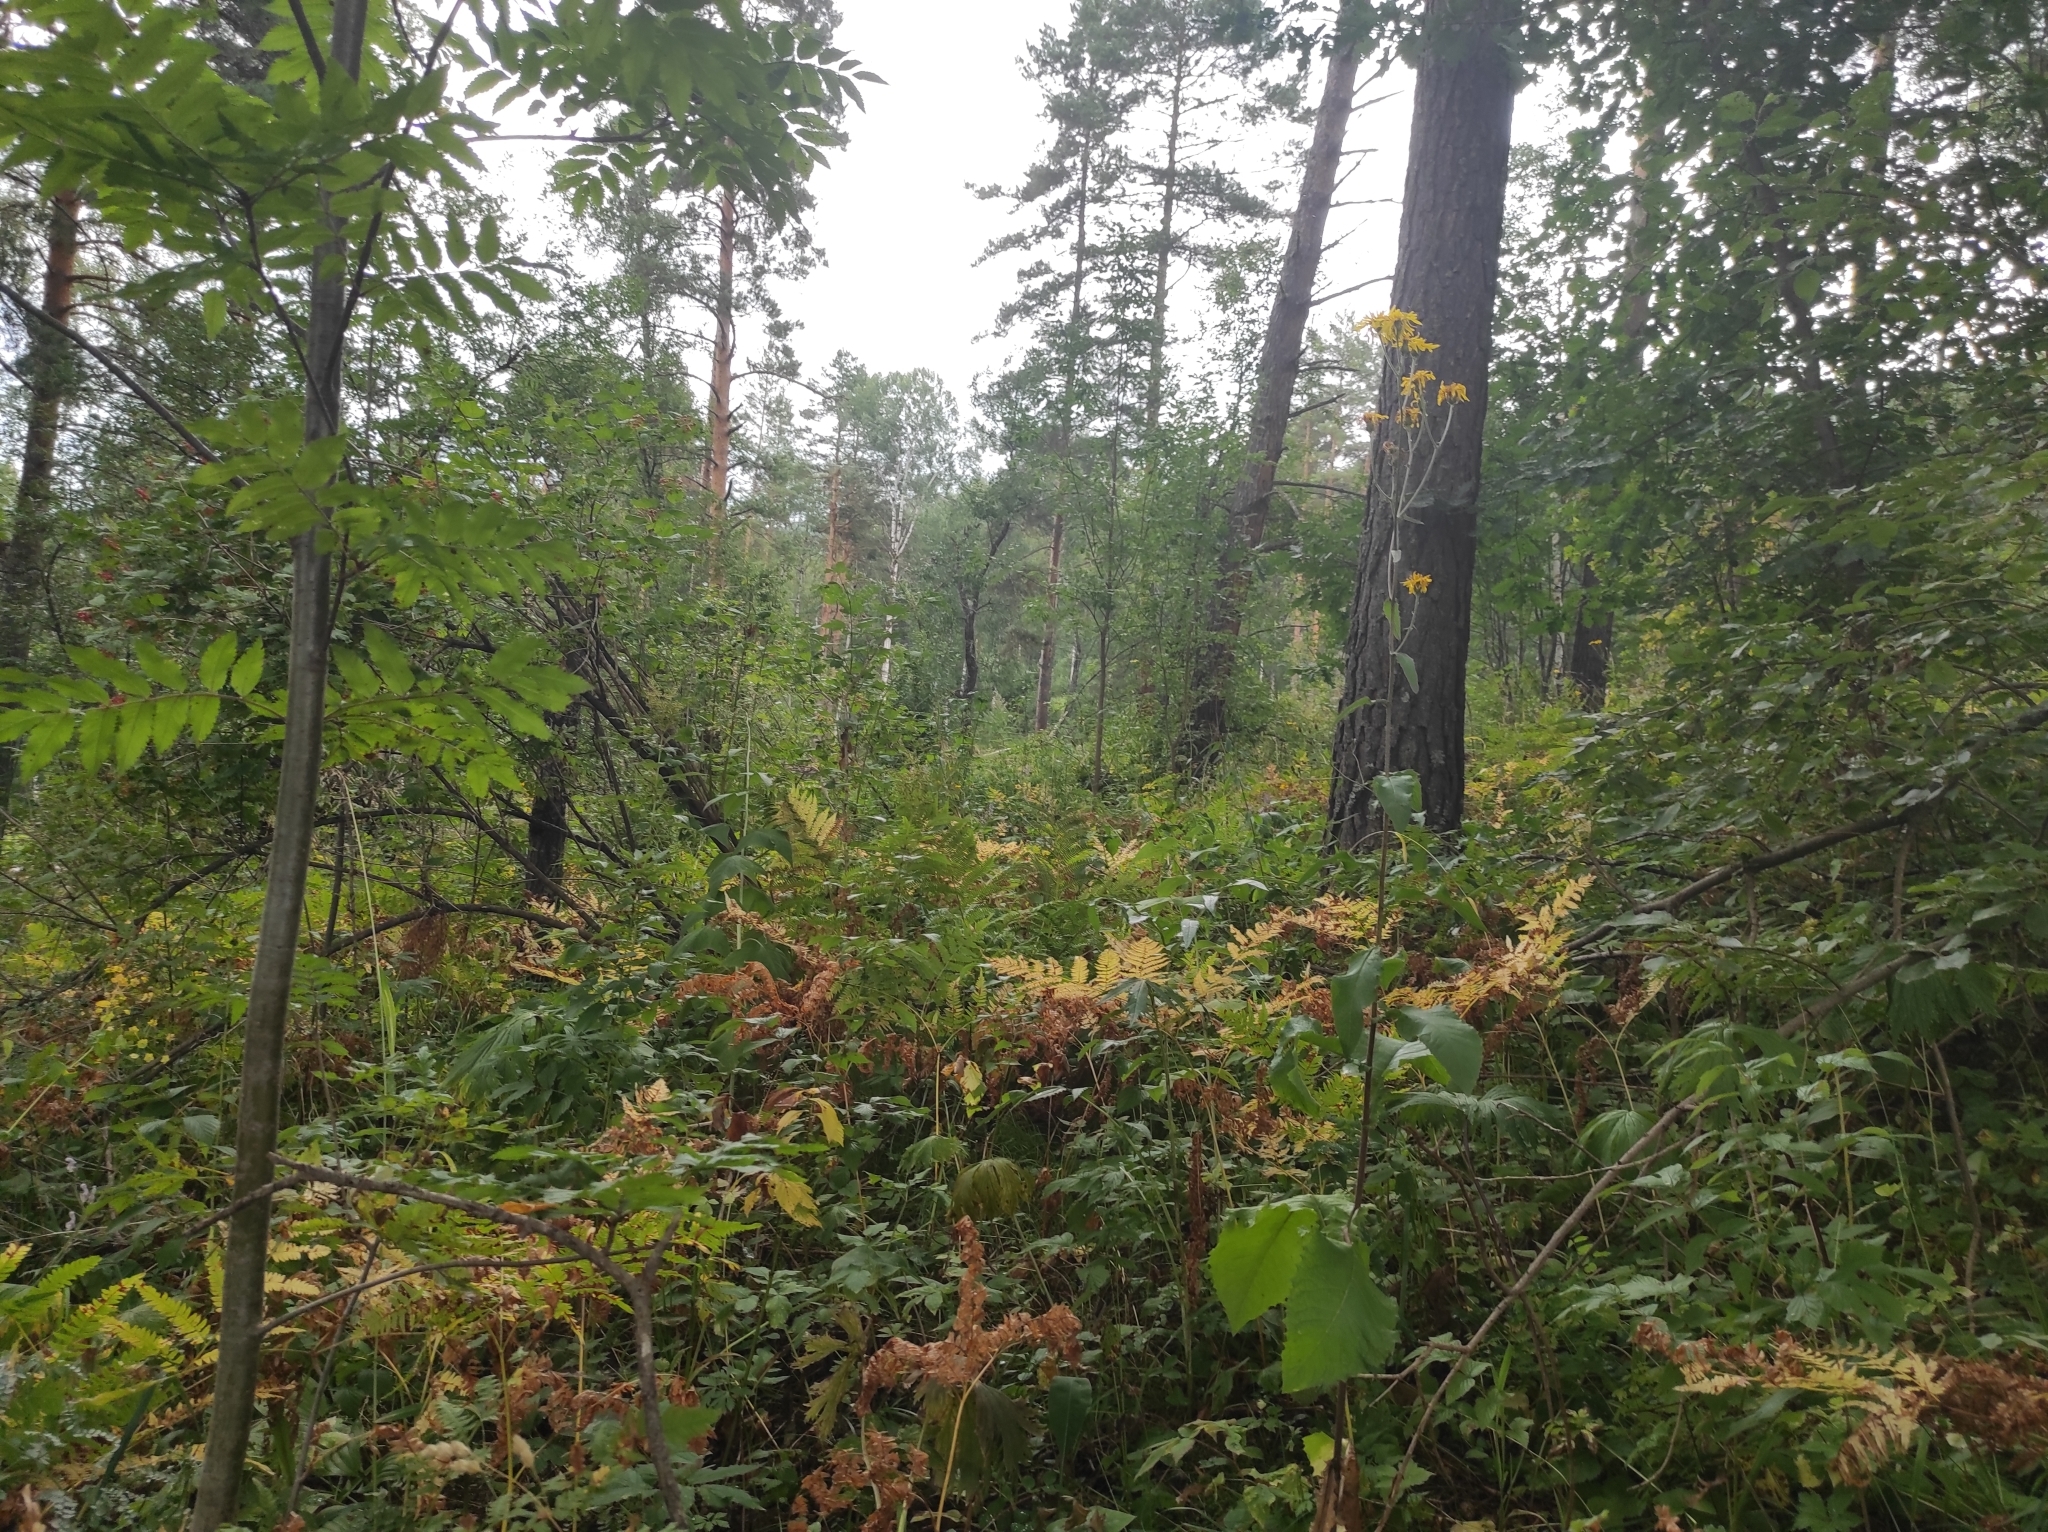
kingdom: Plantae
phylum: Tracheophyta
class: Liliopsida
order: Asparagales
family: Orchidaceae
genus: Cypripedium
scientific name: Cypripedium guttatum
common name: Pink lady slipper
